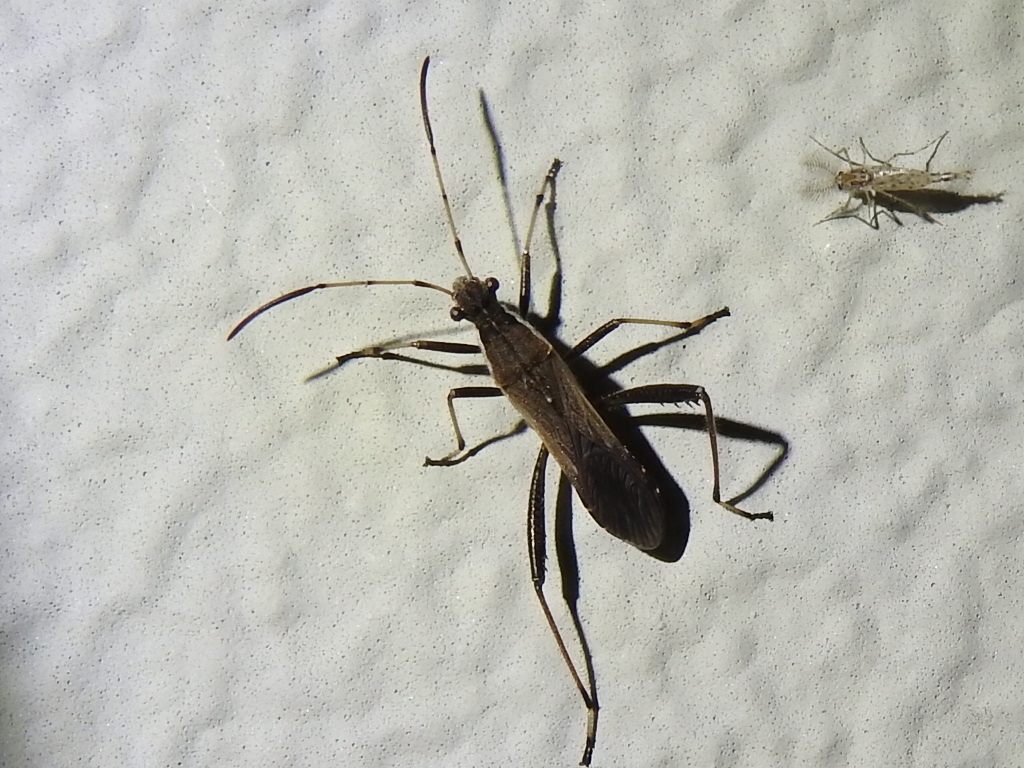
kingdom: Animalia
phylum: Arthropoda
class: Insecta
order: Hemiptera
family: Alydidae
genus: Alydus
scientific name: Alydus pilosulus
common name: Broad-headed bug
